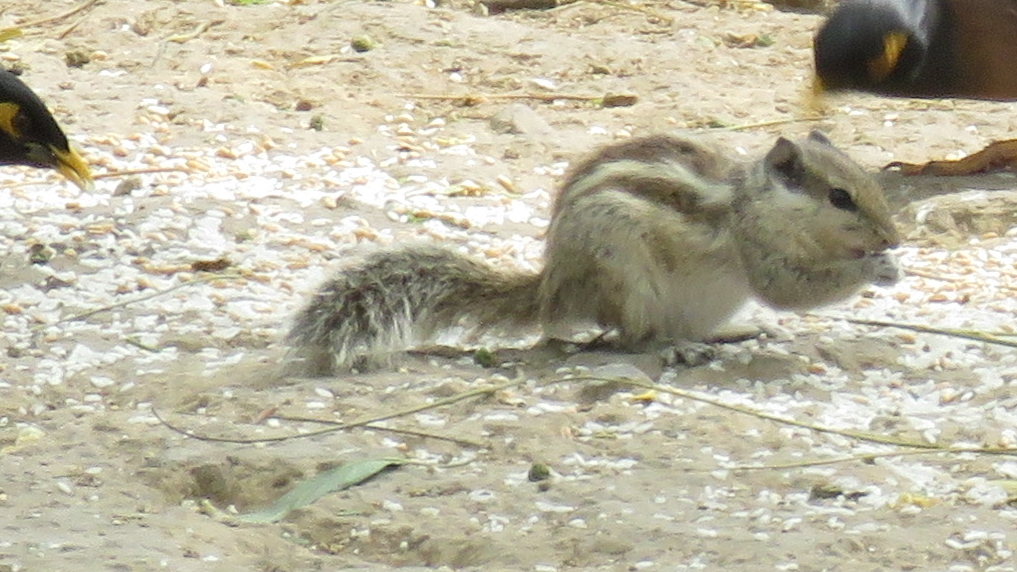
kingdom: Animalia
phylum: Chordata
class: Mammalia
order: Rodentia
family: Sciuridae
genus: Funambulus
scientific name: Funambulus pennantii
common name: Northern palm squirrel
